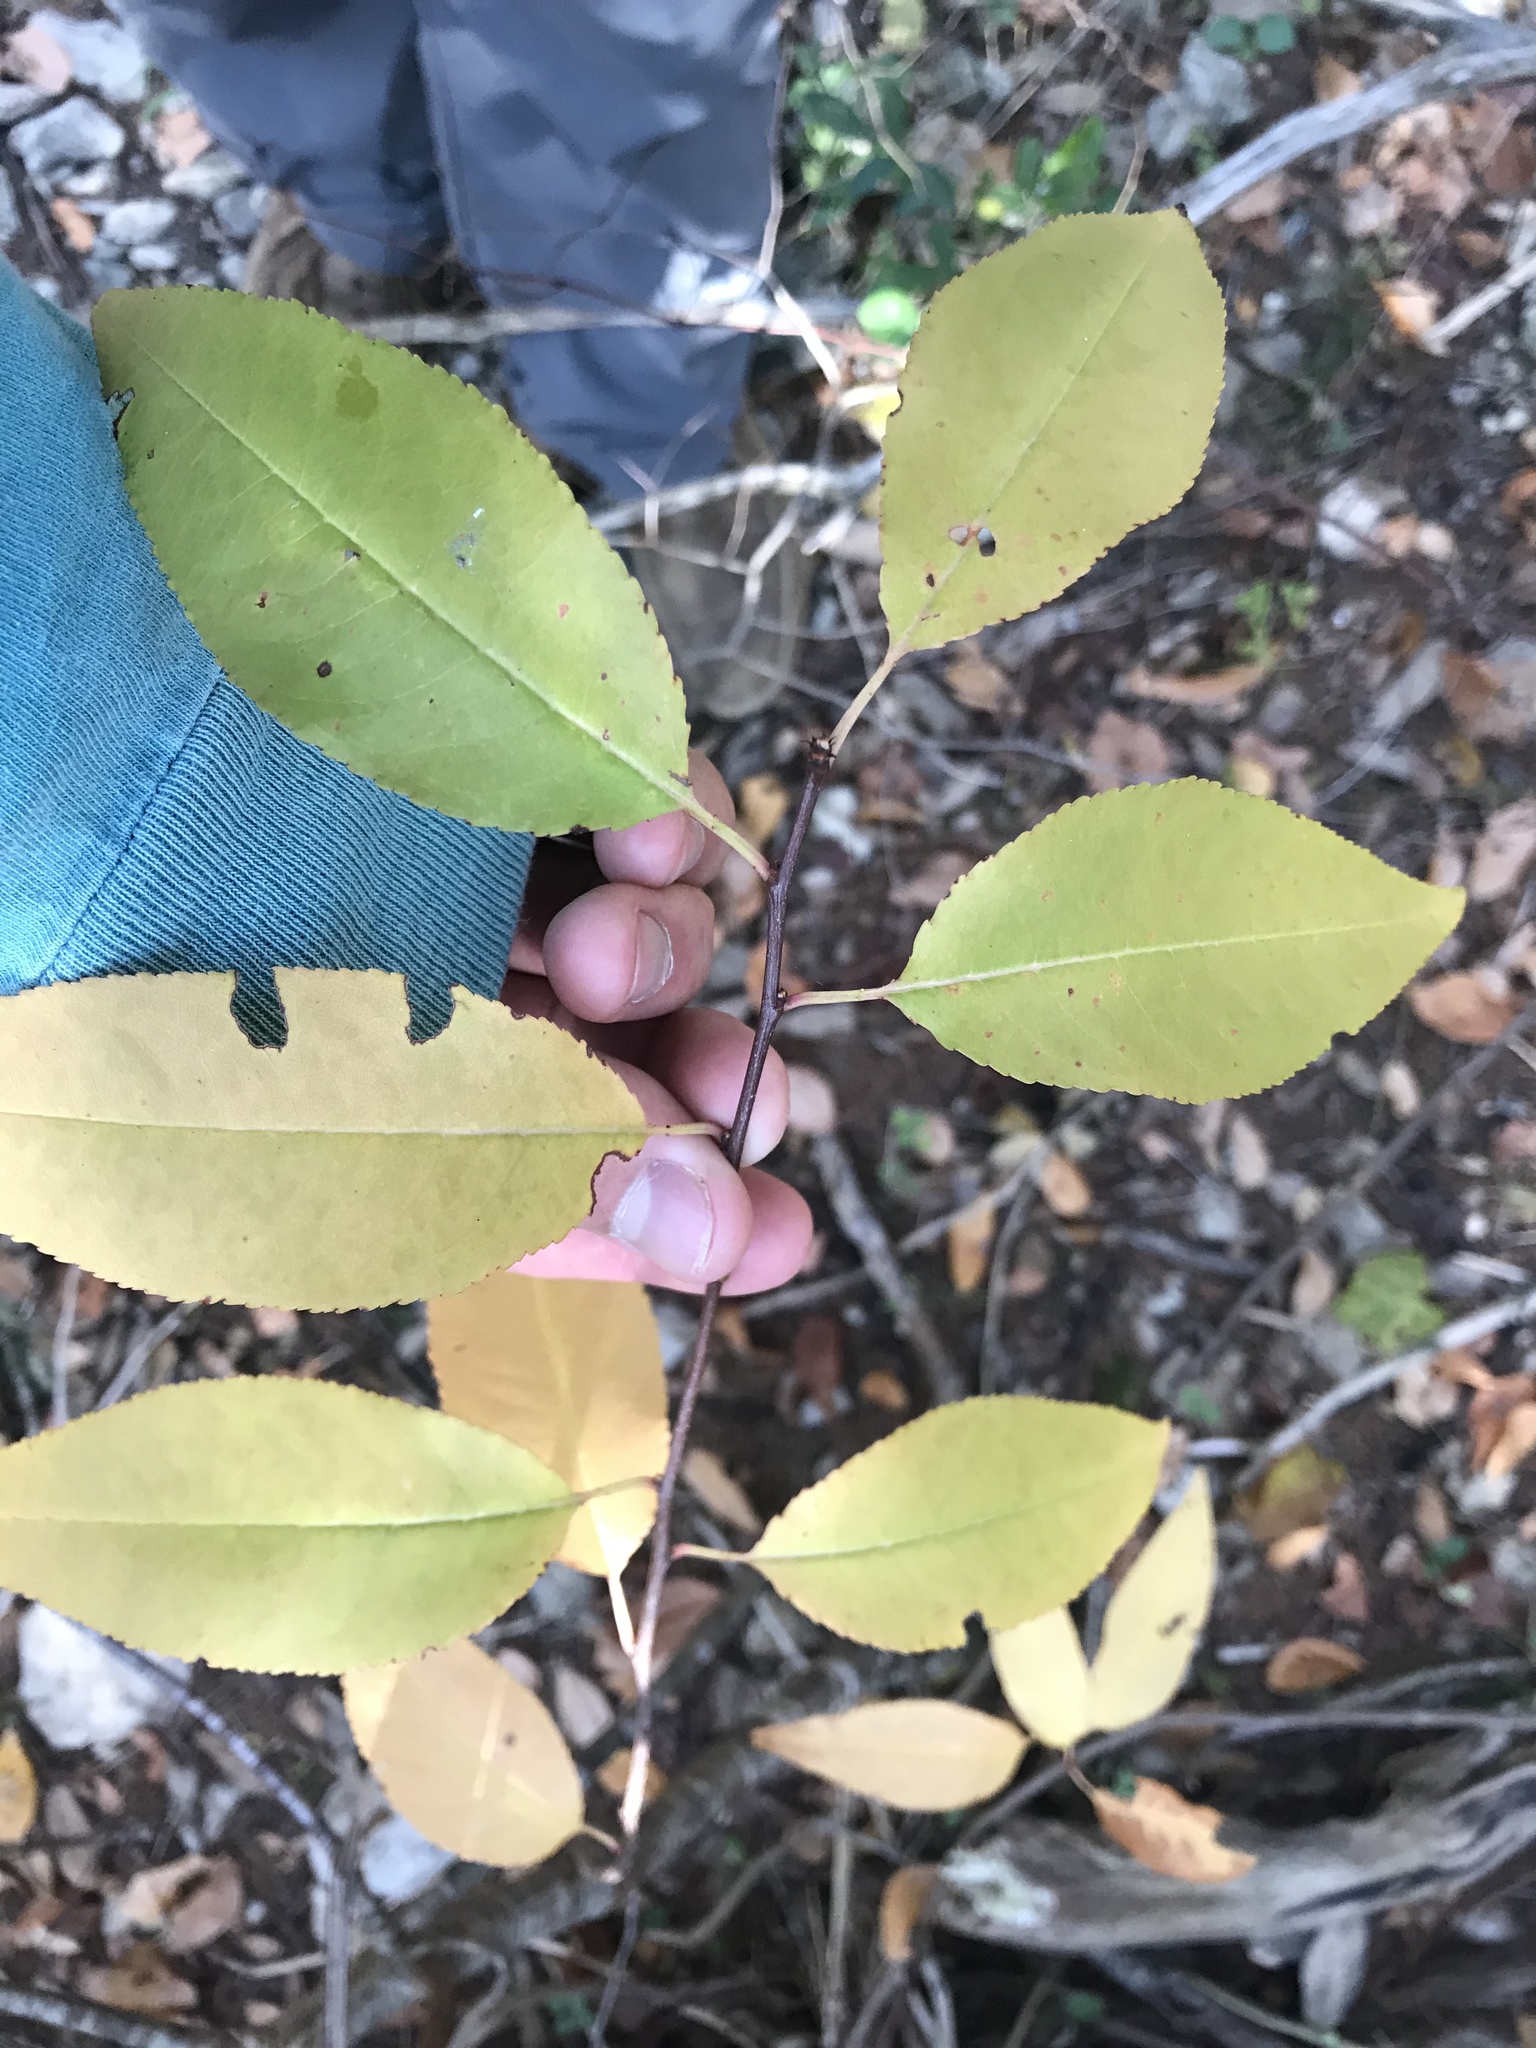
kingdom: Plantae
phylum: Tracheophyta
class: Magnoliopsida
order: Rosales
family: Rosaceae
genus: Prunus
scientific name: Prunus serotina
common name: Black cherry
